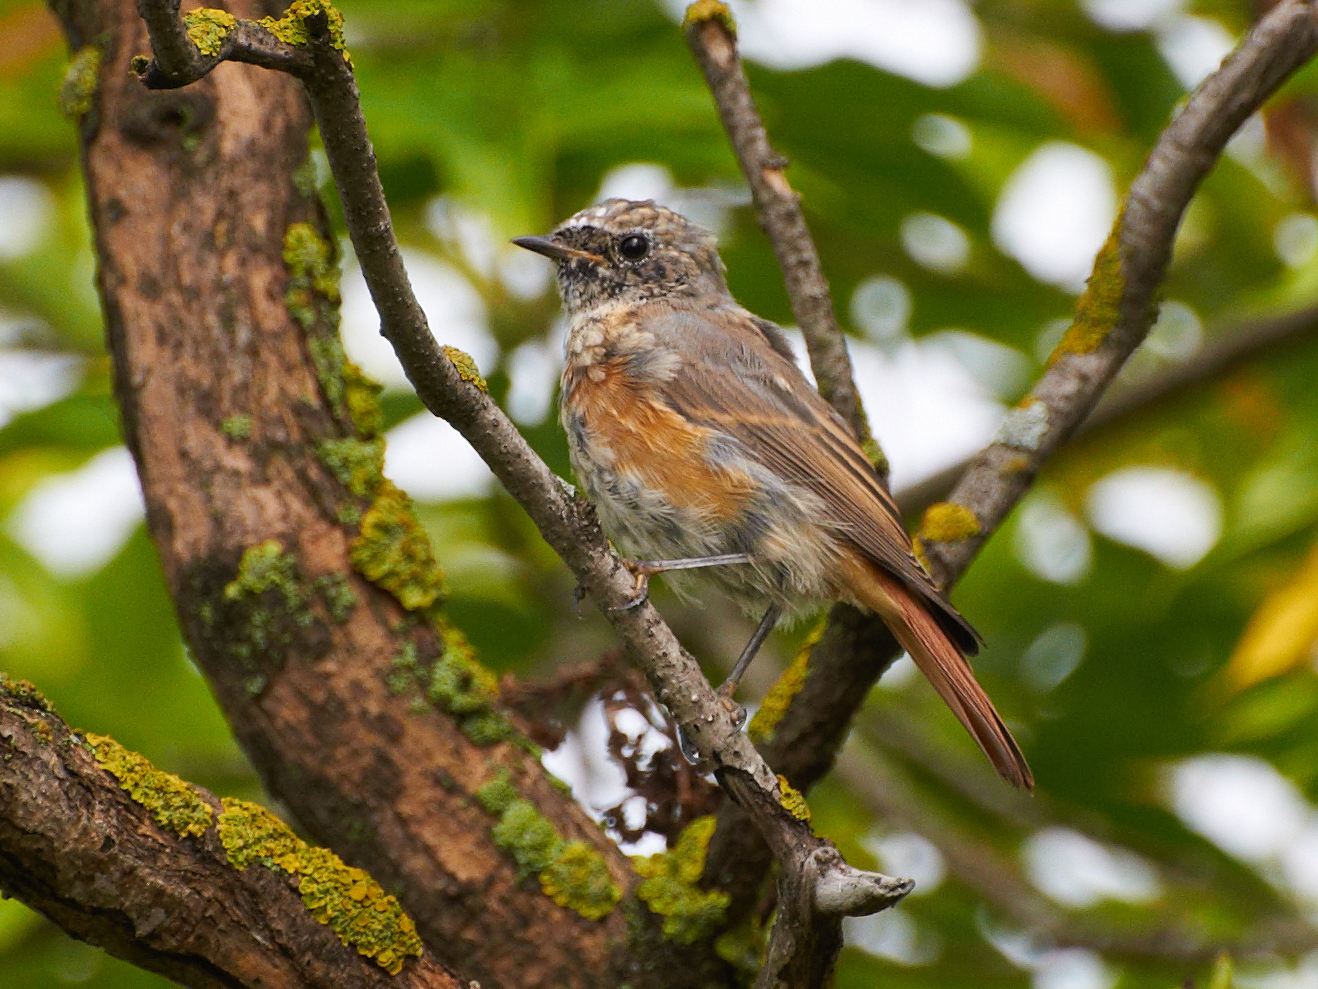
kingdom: Animalia
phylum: Chordata
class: Aves
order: Passeriformes
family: Muscicapidae
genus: Phoenicurus
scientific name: Phoenicurus phoenicurus
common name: Common redstart
